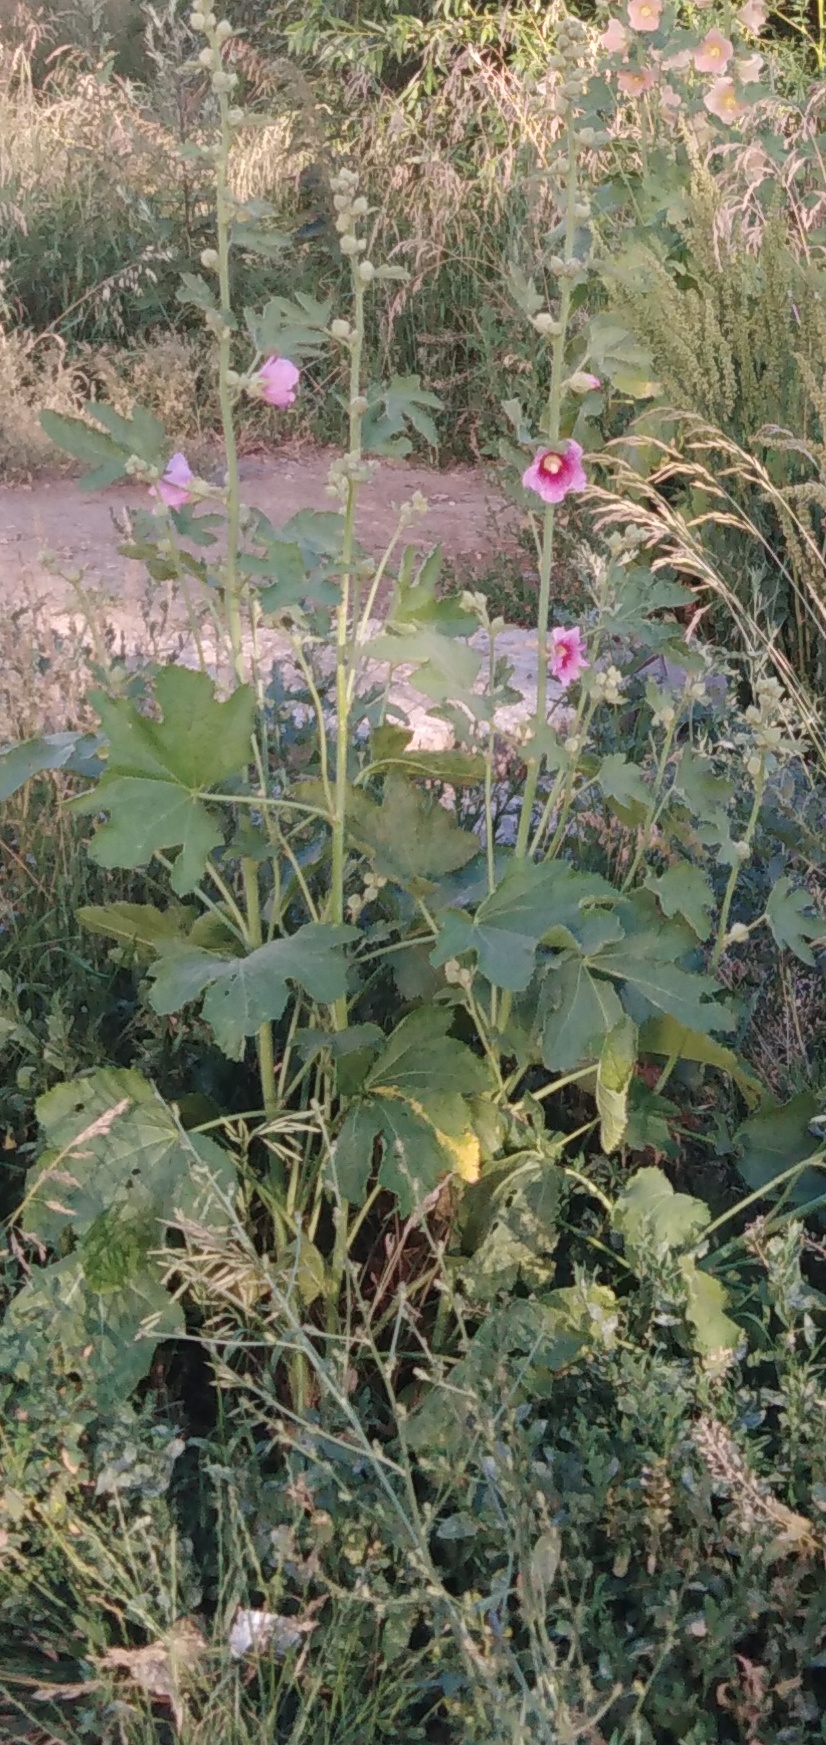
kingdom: Plantae
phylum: Tracheophyta
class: Magnoliopsida
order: Malvales
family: Malvaceae
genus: Alcea
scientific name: Alcea rosea
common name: Hollyhock
